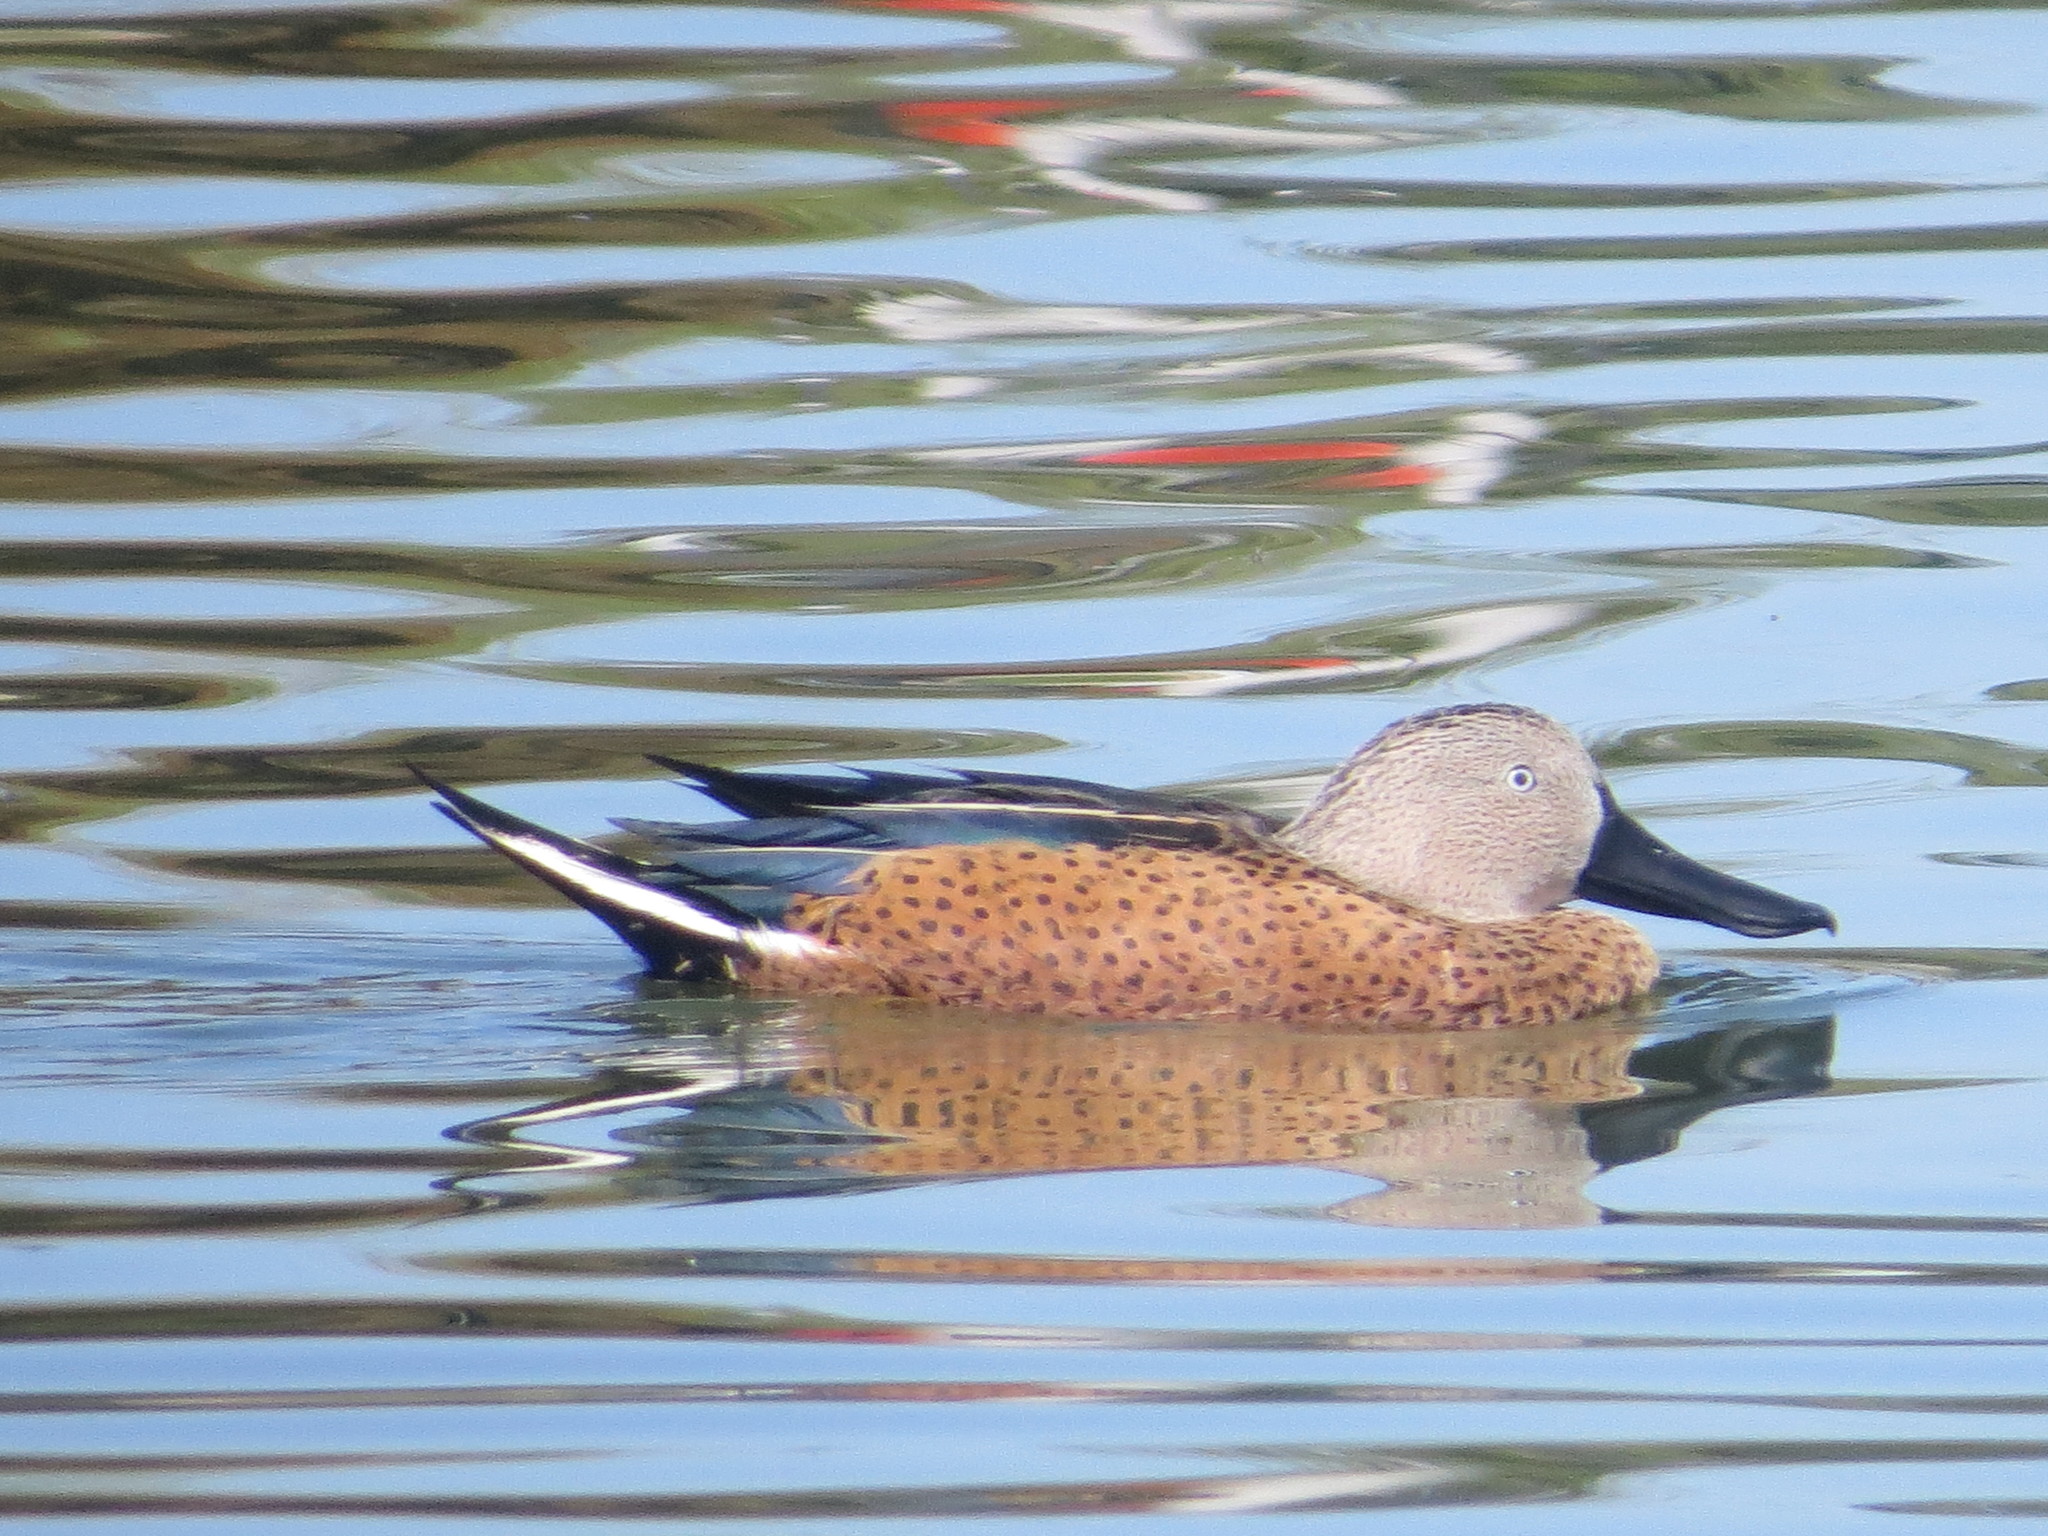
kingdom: Animalia
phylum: Chordata
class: Aves
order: Anseriformes
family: Anatidae
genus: Spatula
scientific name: Spatula platalea
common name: Red shoveler
